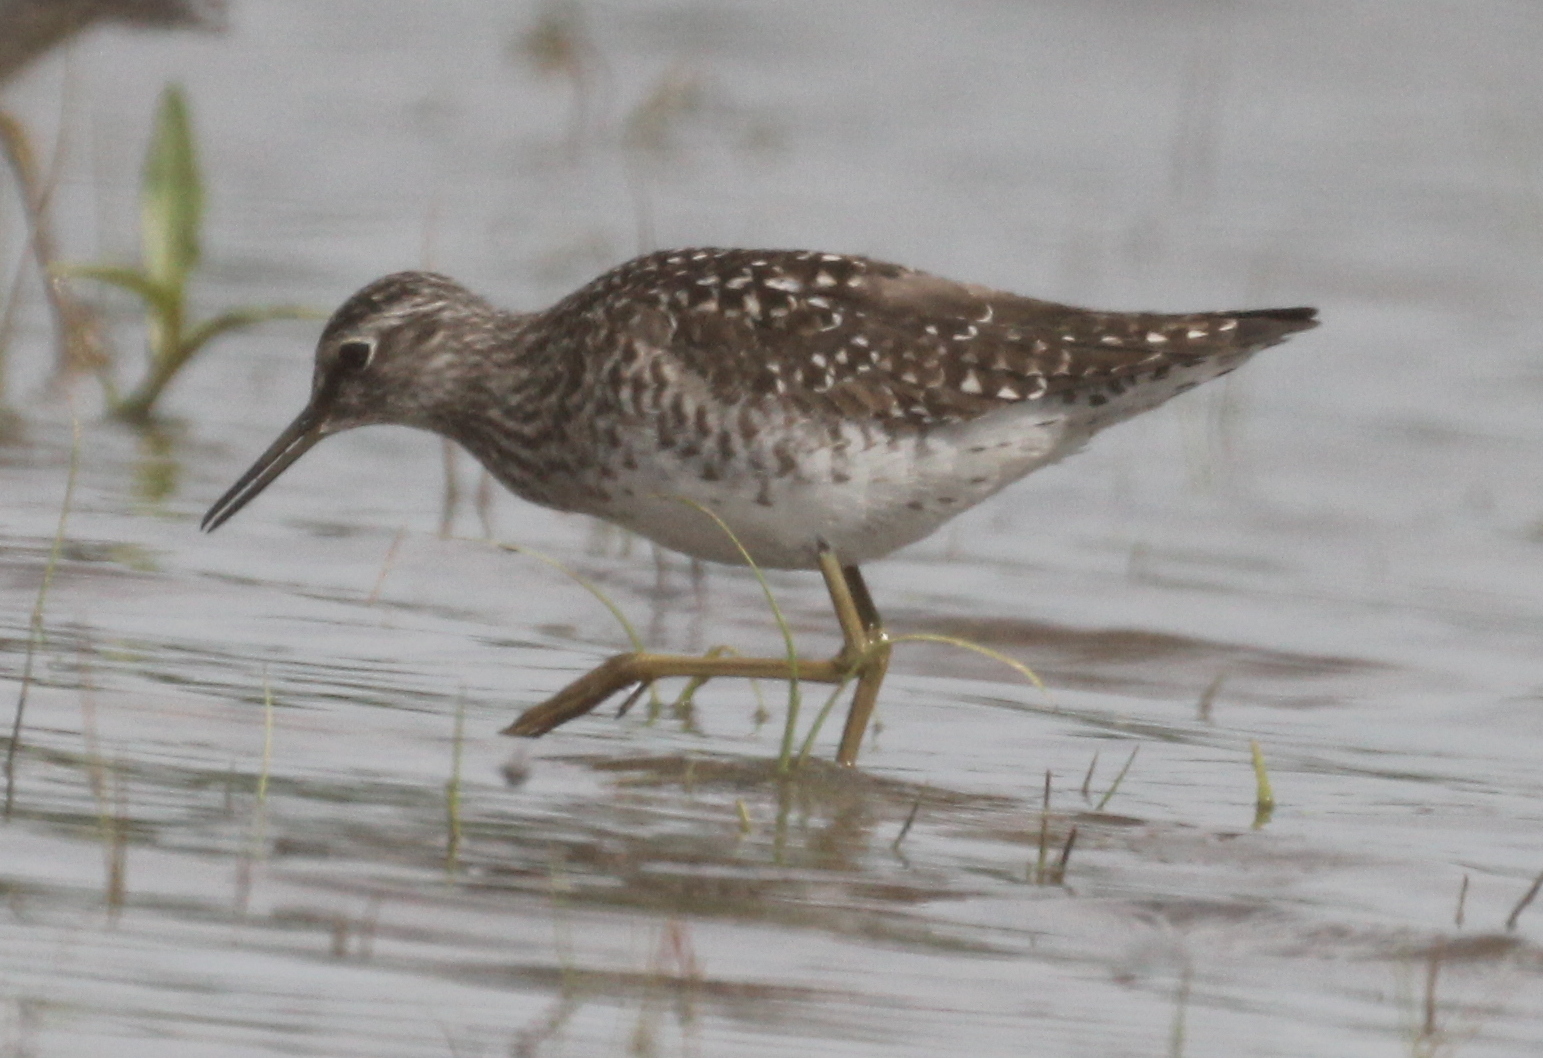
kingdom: Animalia
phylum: Chordata
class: Aves
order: Charadriiformes
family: Scolopacidae
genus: Tringa
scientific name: Tringa glareola
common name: Wood sandpiper
